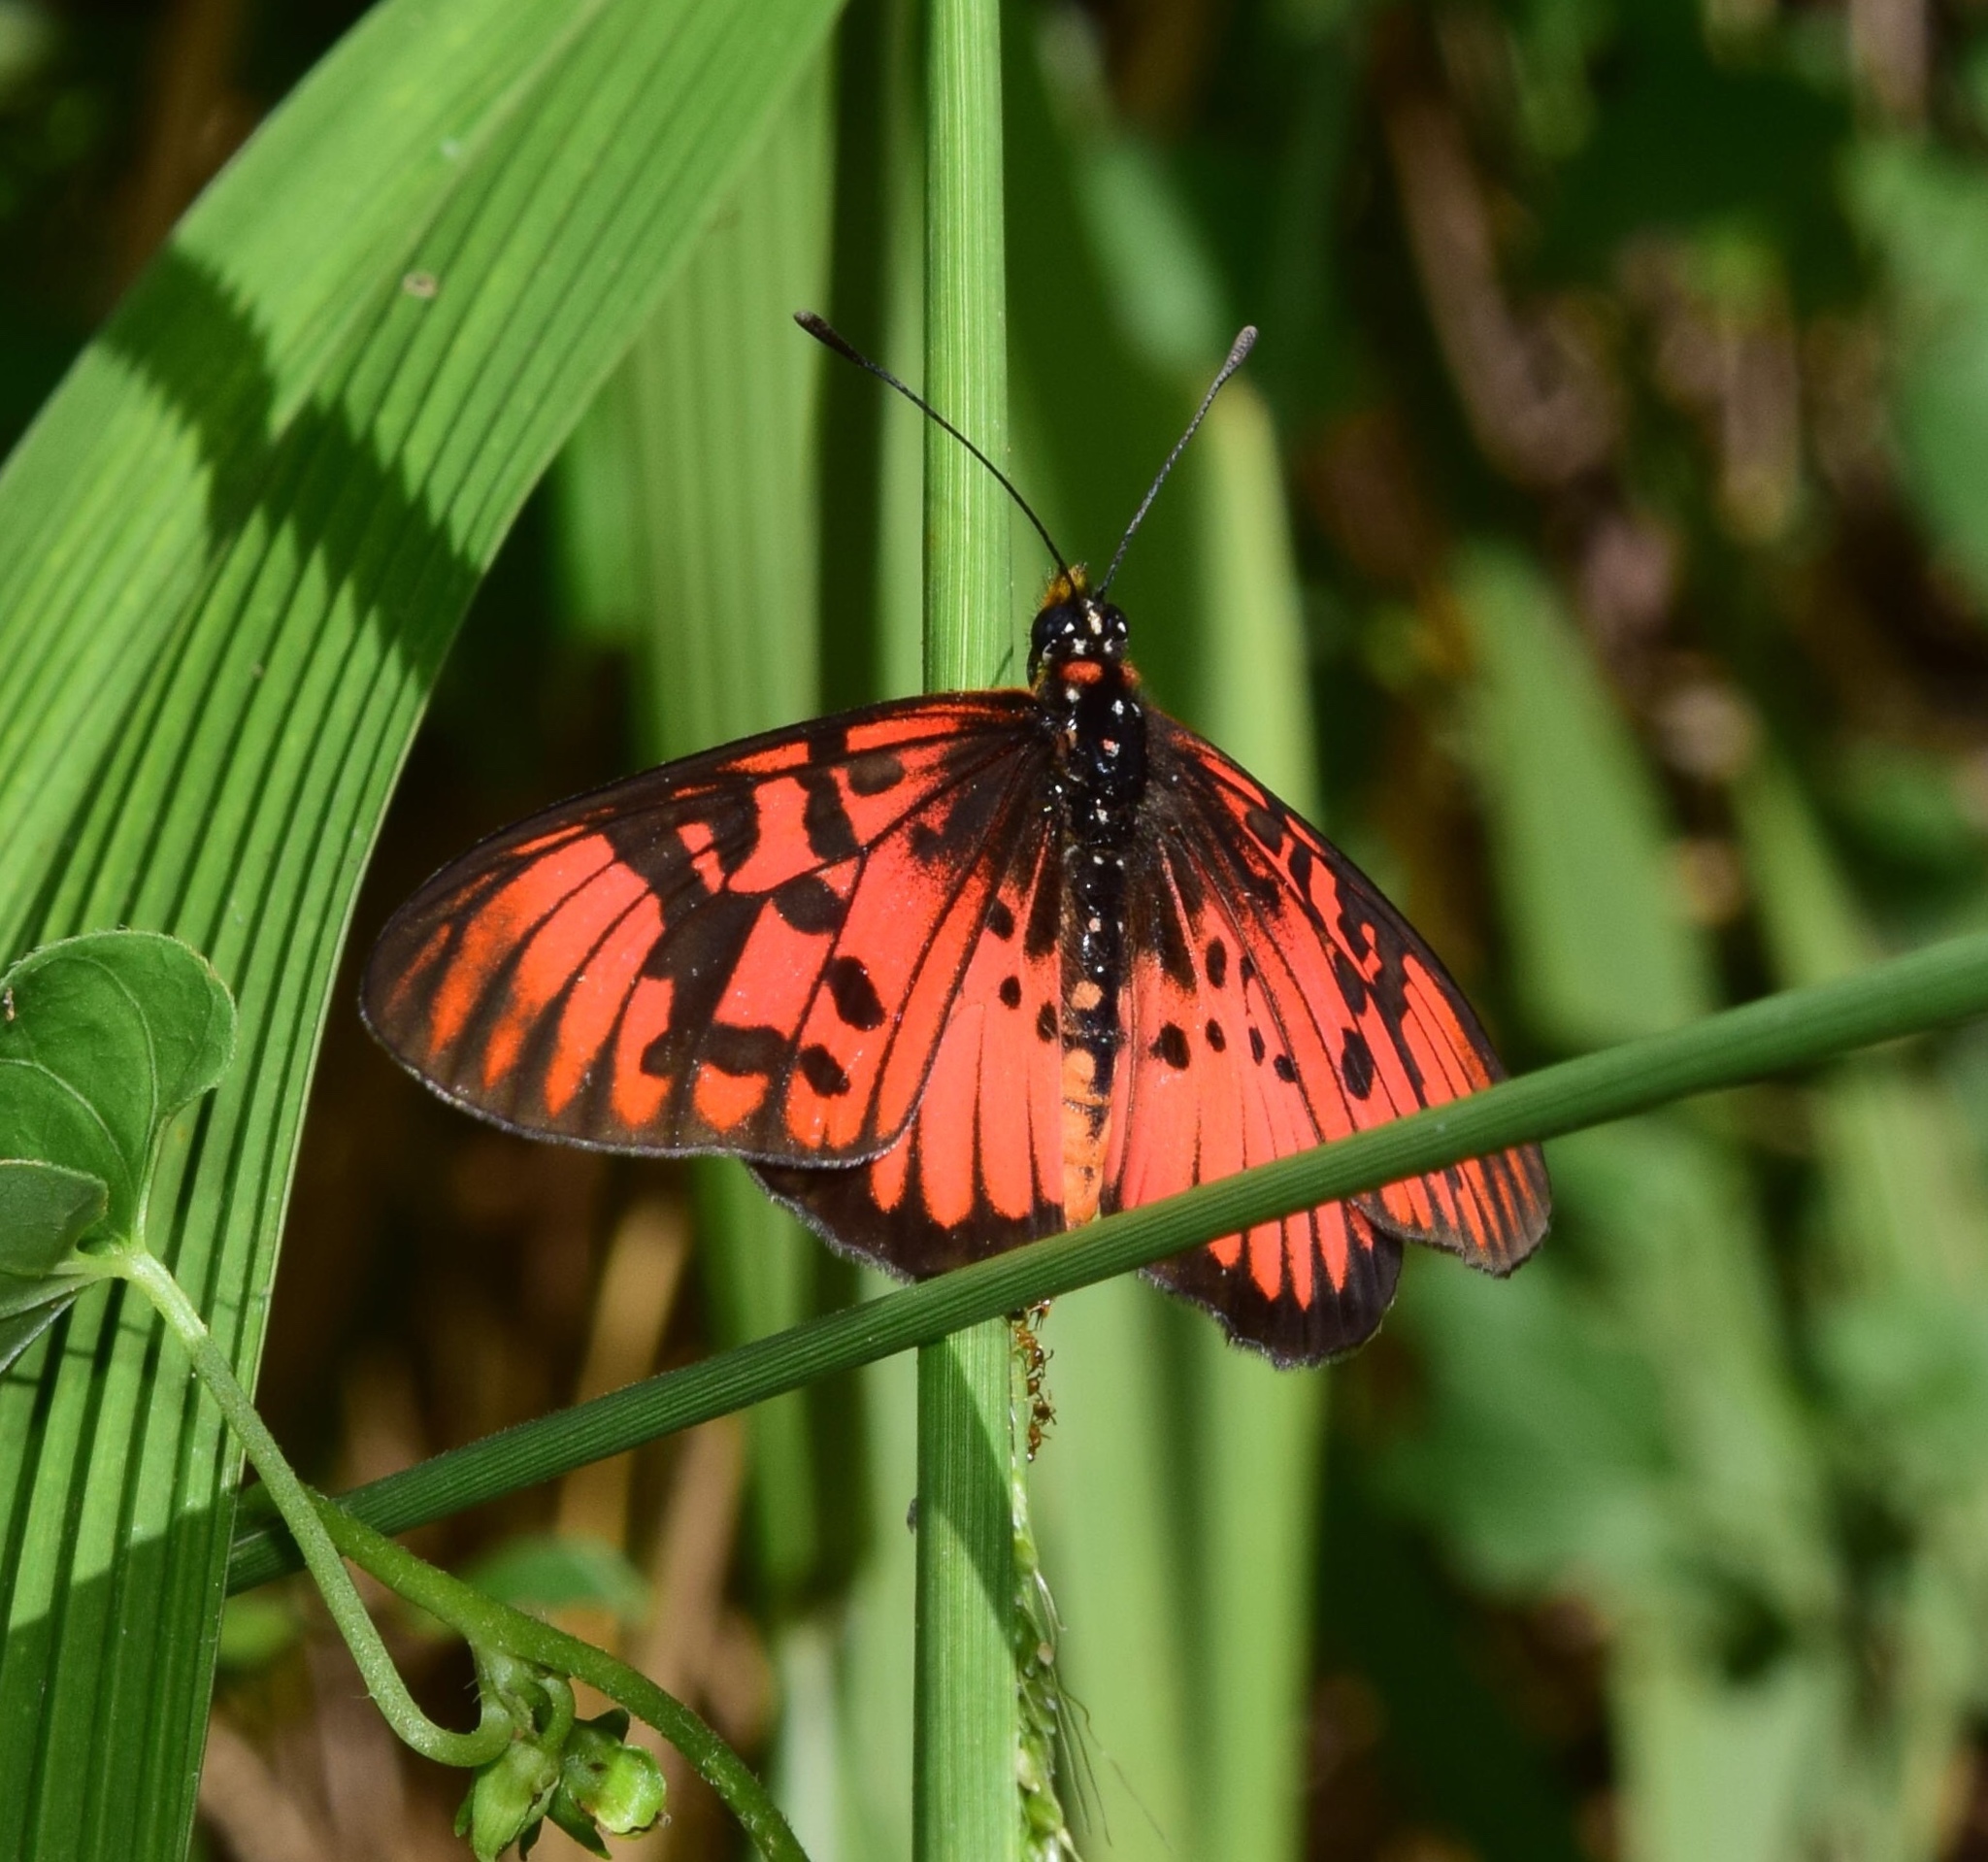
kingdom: Animalia
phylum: Arthropoda
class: Insecta
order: Lepidoptera
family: Nymphalidae
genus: Rubraea
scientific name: Rubraea
